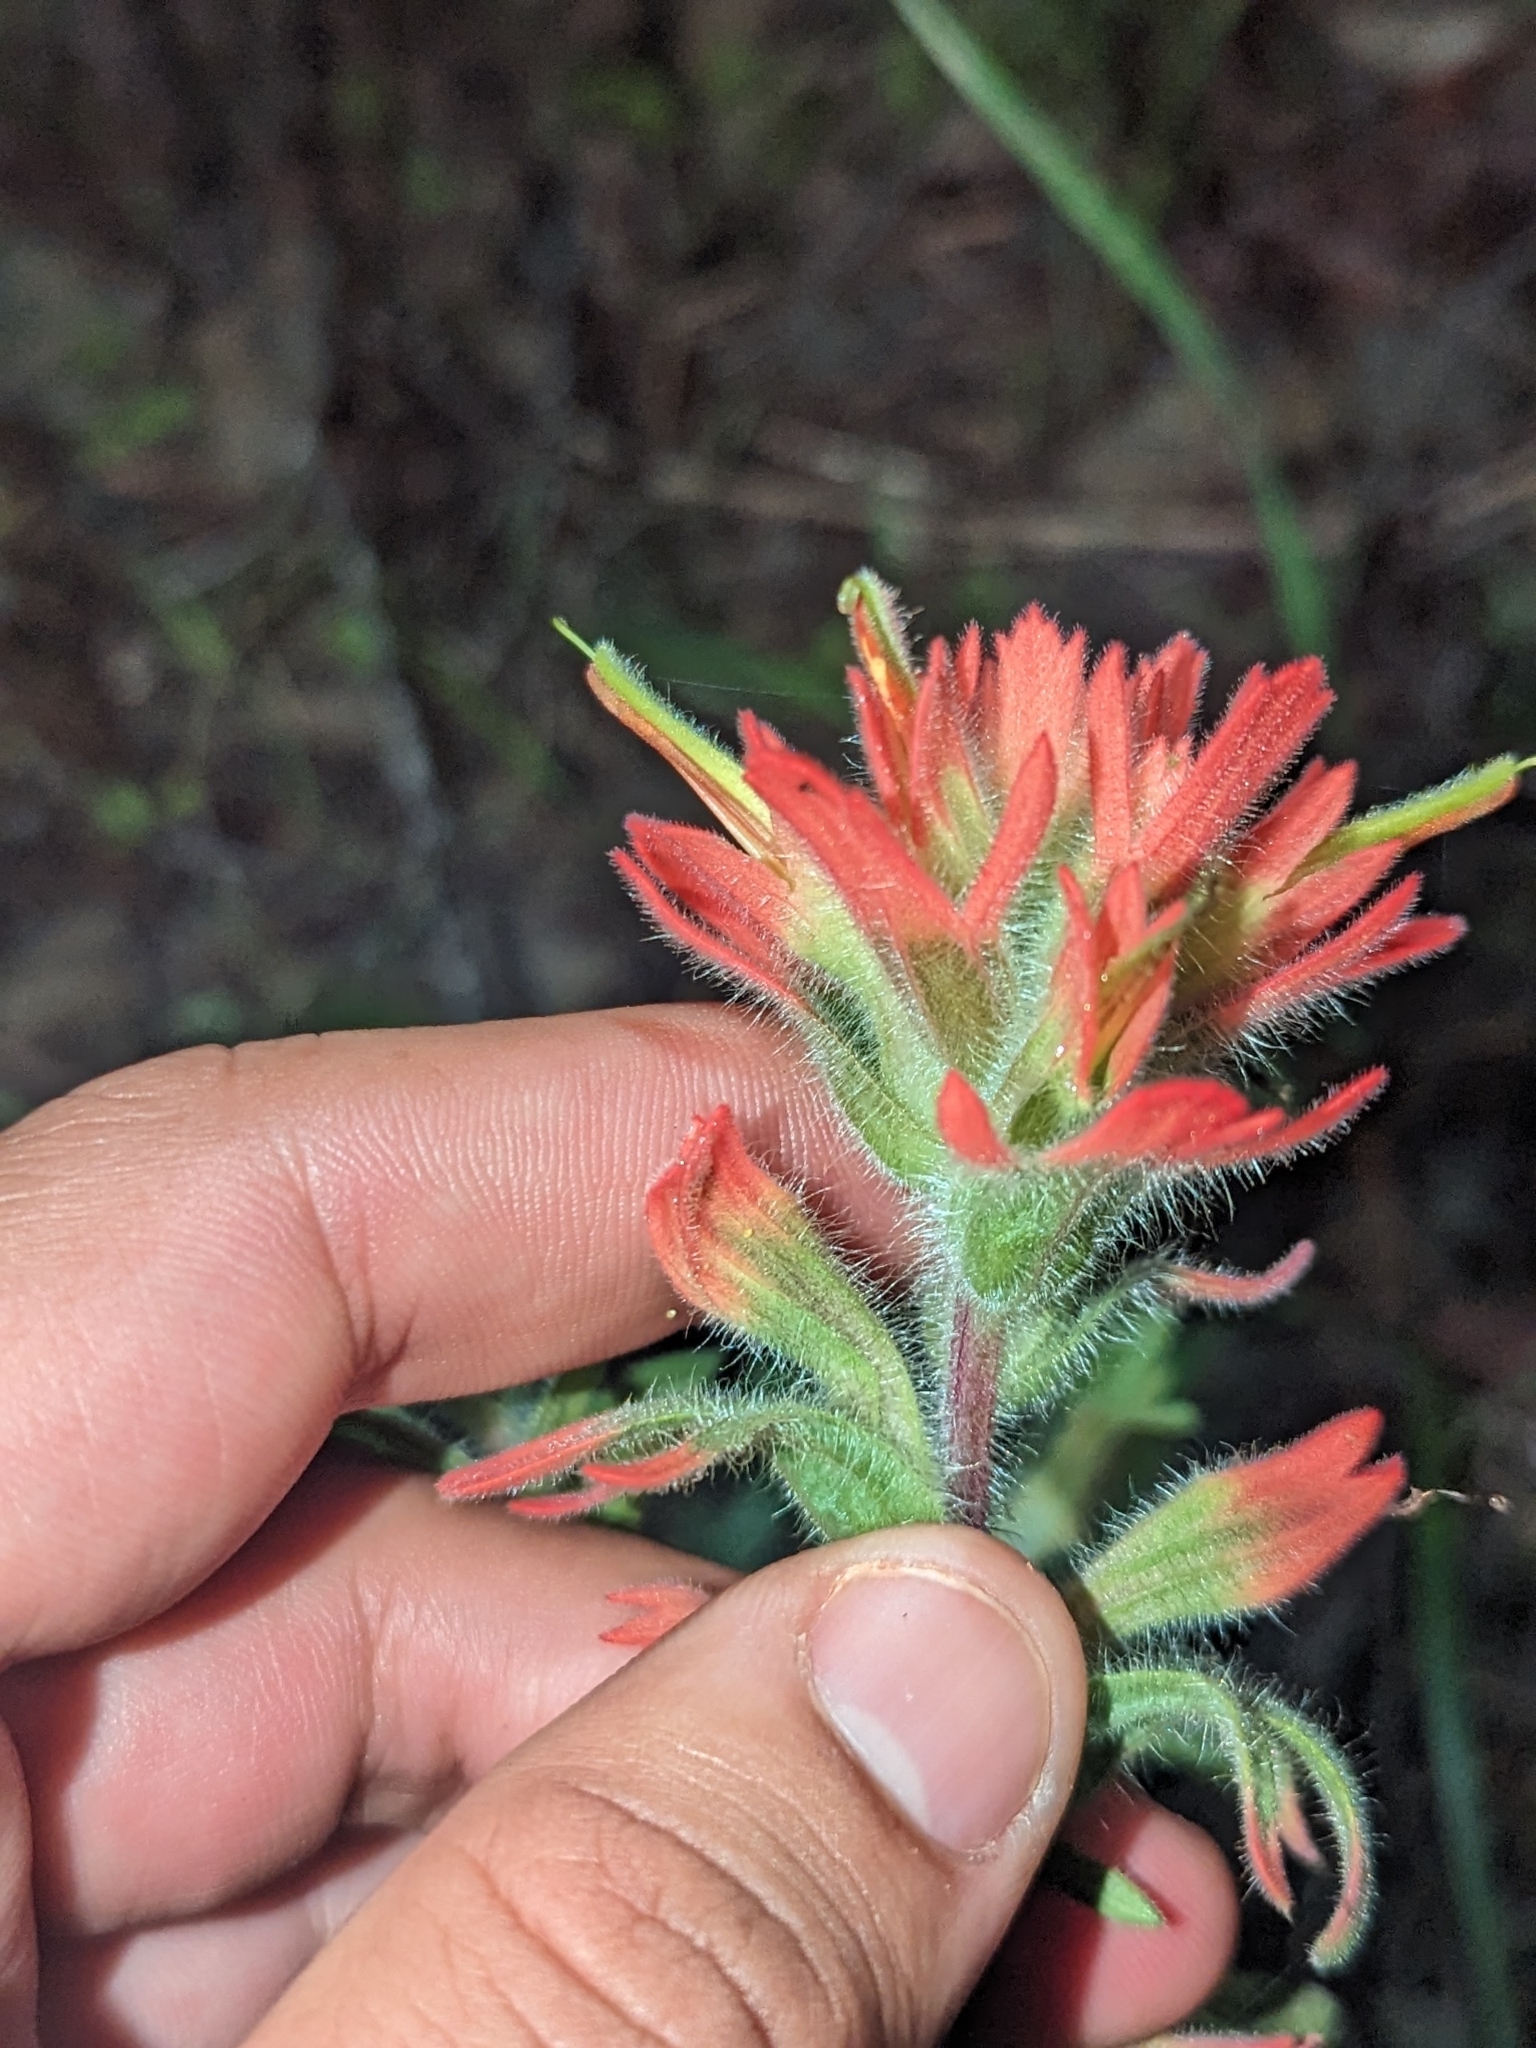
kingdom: Plantae
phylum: Tracheophyta
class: Magnoliopsida
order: Lamiales
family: Orobanchaceae
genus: Castilleja
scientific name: Castilleja affinis
